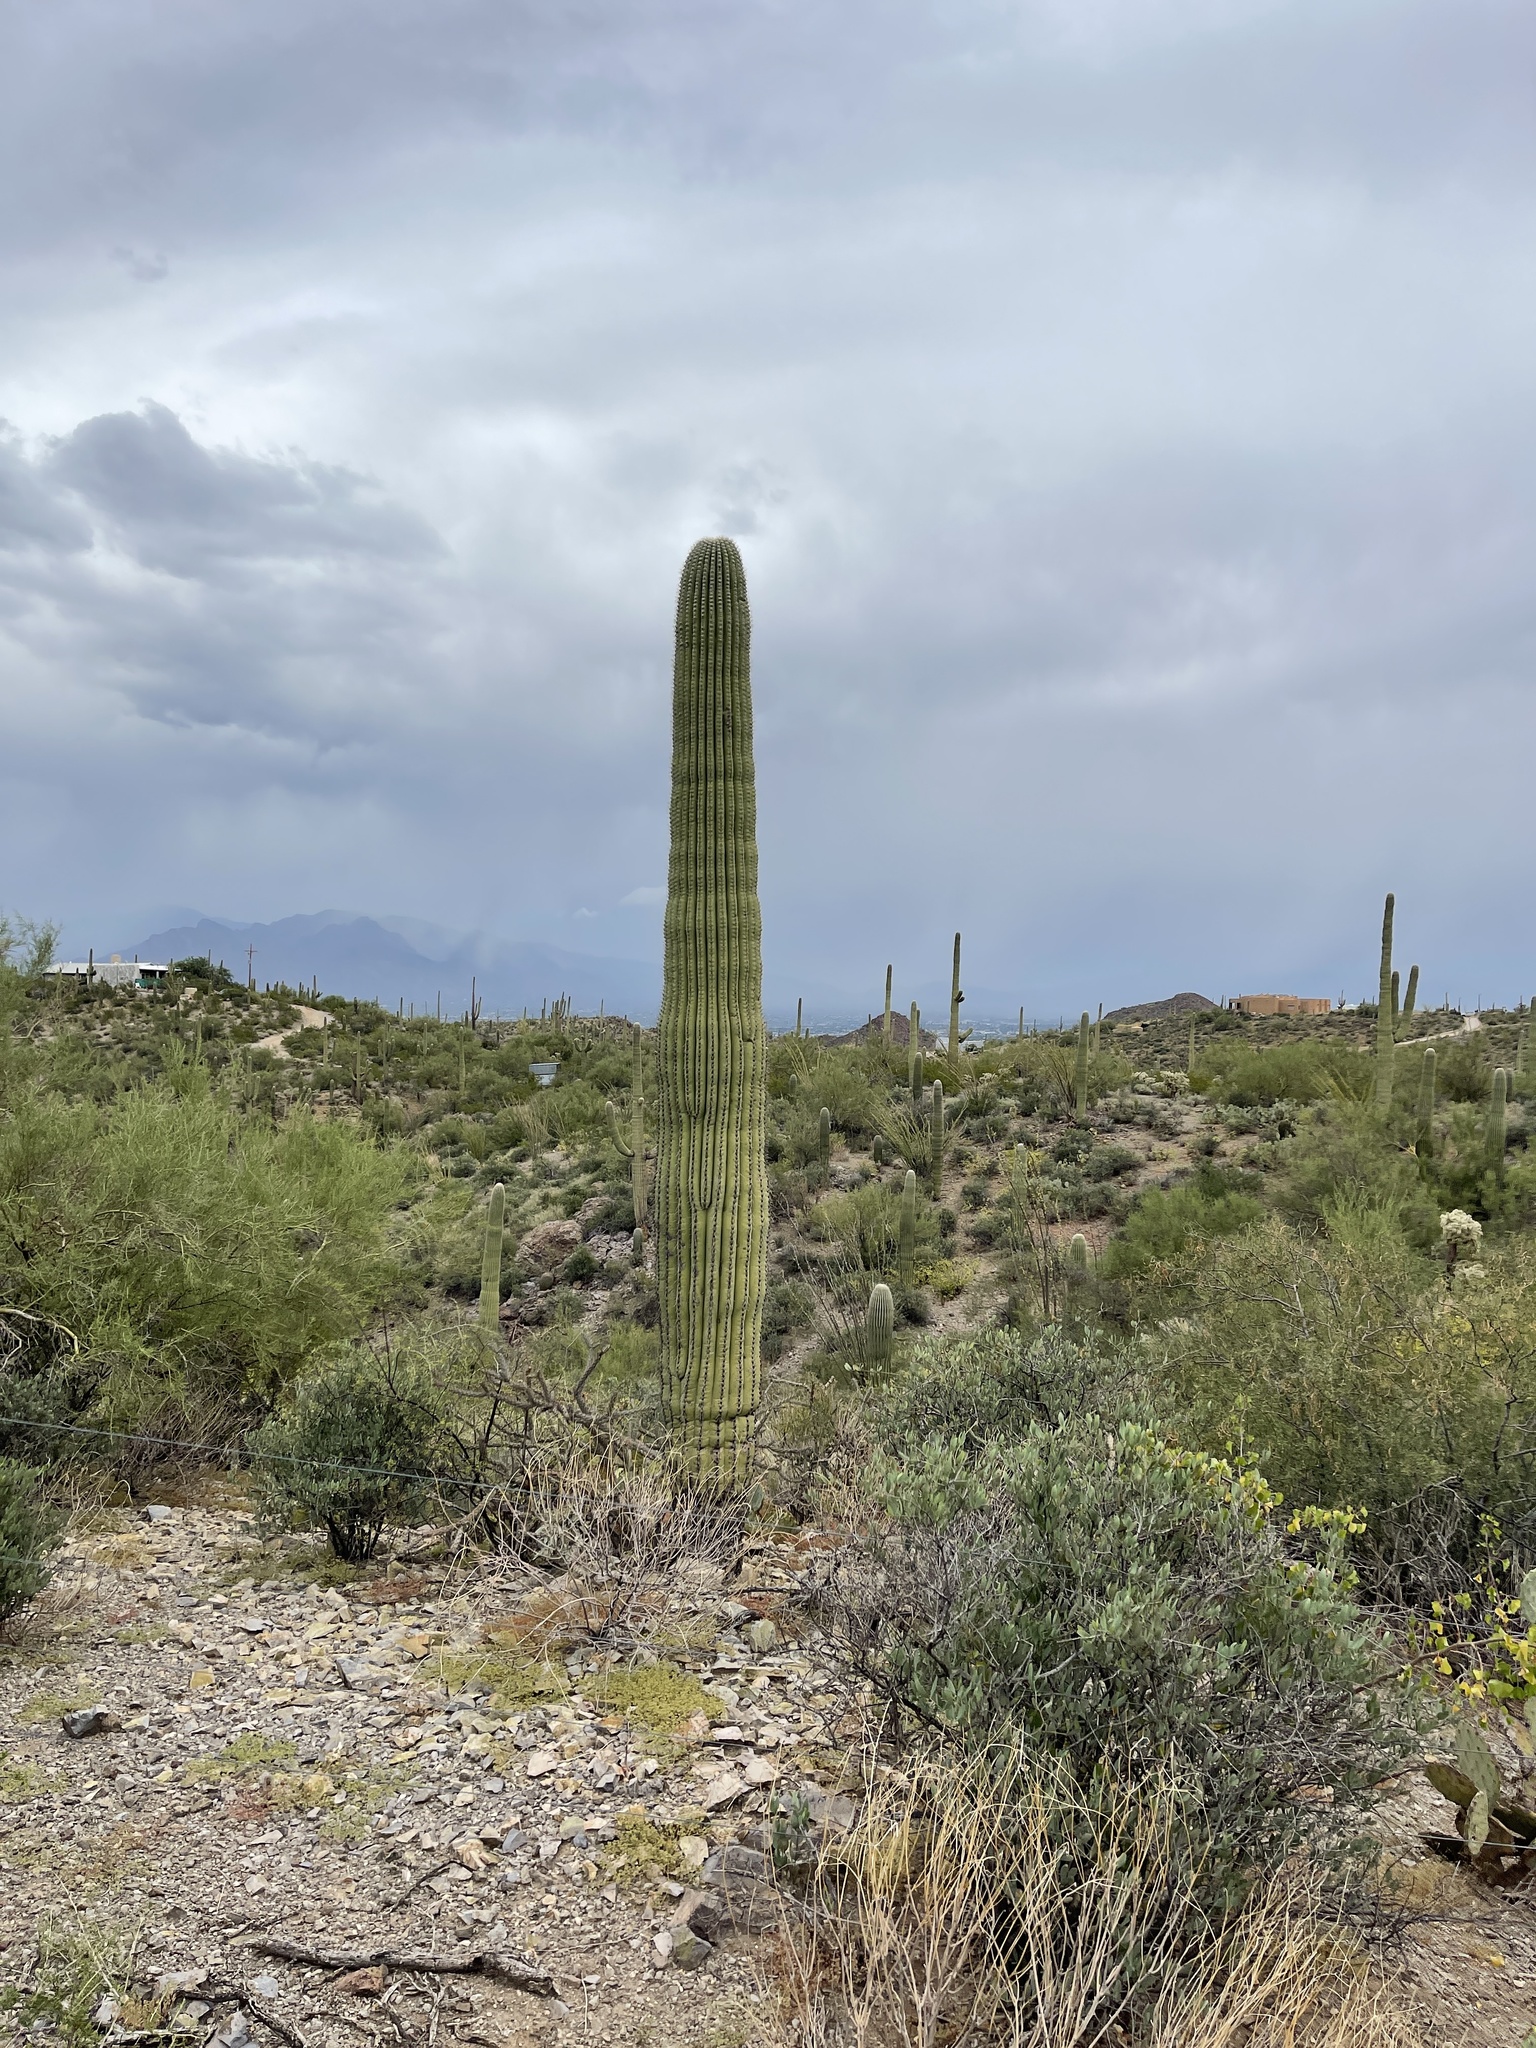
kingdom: Plantae
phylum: Tracheophyta
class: Magnoliopsida
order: Caryophyllales
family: Cactaceae
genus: Carnegiea
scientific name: Carnegiea gigantea
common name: Saguaro
